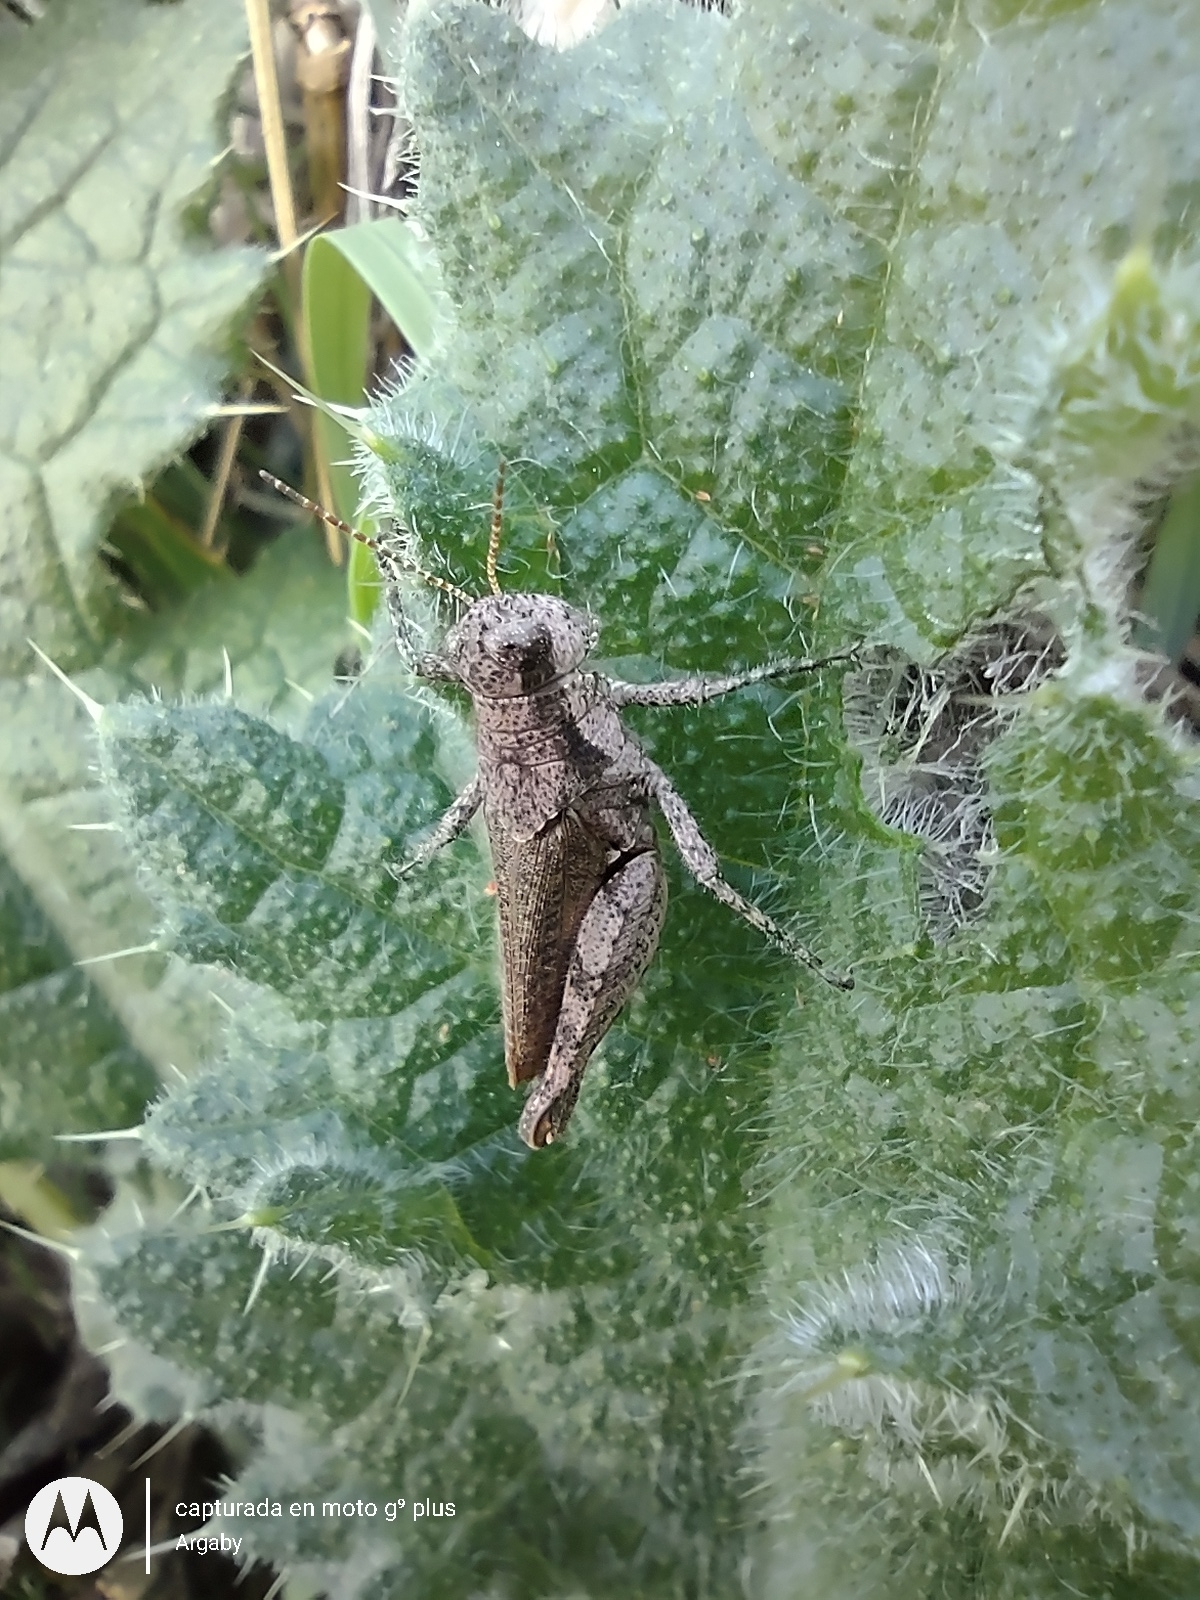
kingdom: Animalia
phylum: Arthropoda
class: Insecta
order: Orthoptera
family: Acrididae
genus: Ronderosia
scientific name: Ronderosia bergii
